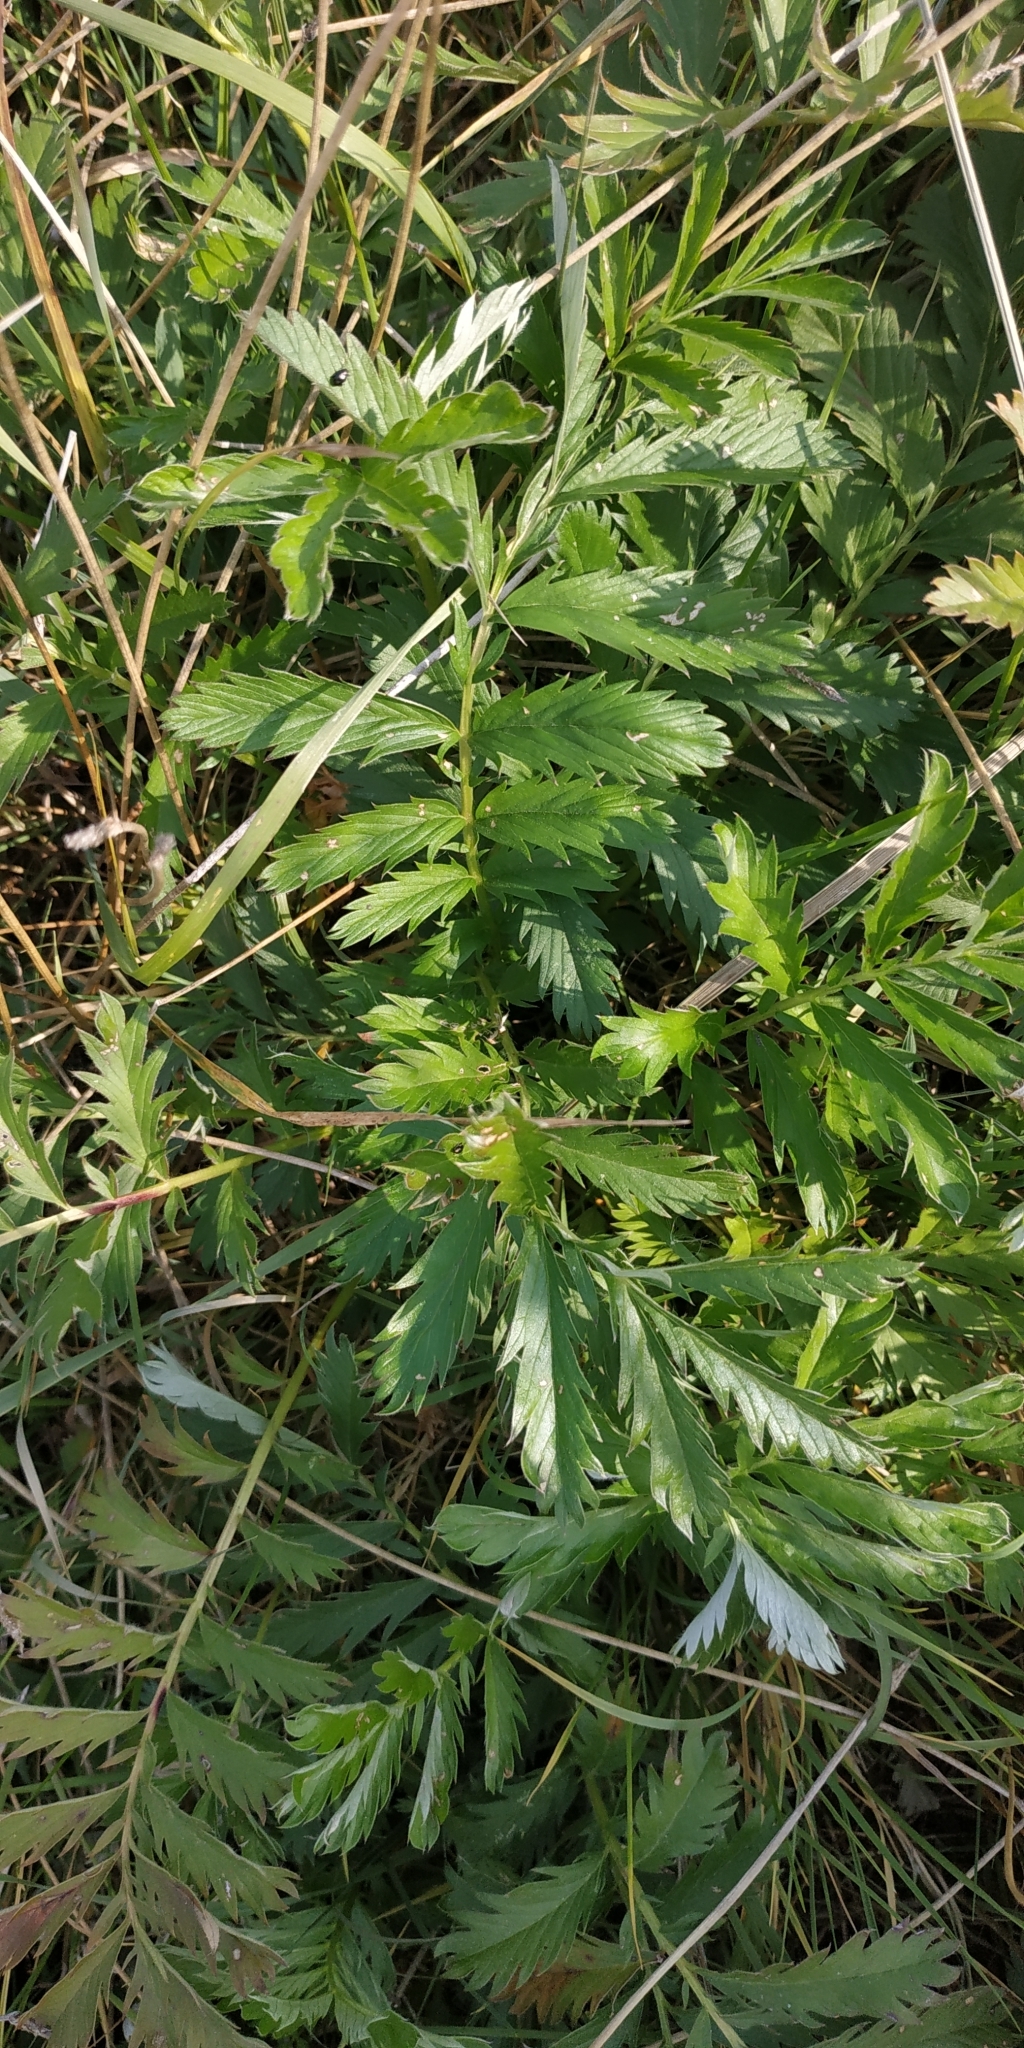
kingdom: Plantae
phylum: Tracheophyta
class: Magnoliopsida
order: Rosales
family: Rosaceae
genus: Argentina
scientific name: Argentina anserina
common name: Common silverweed
